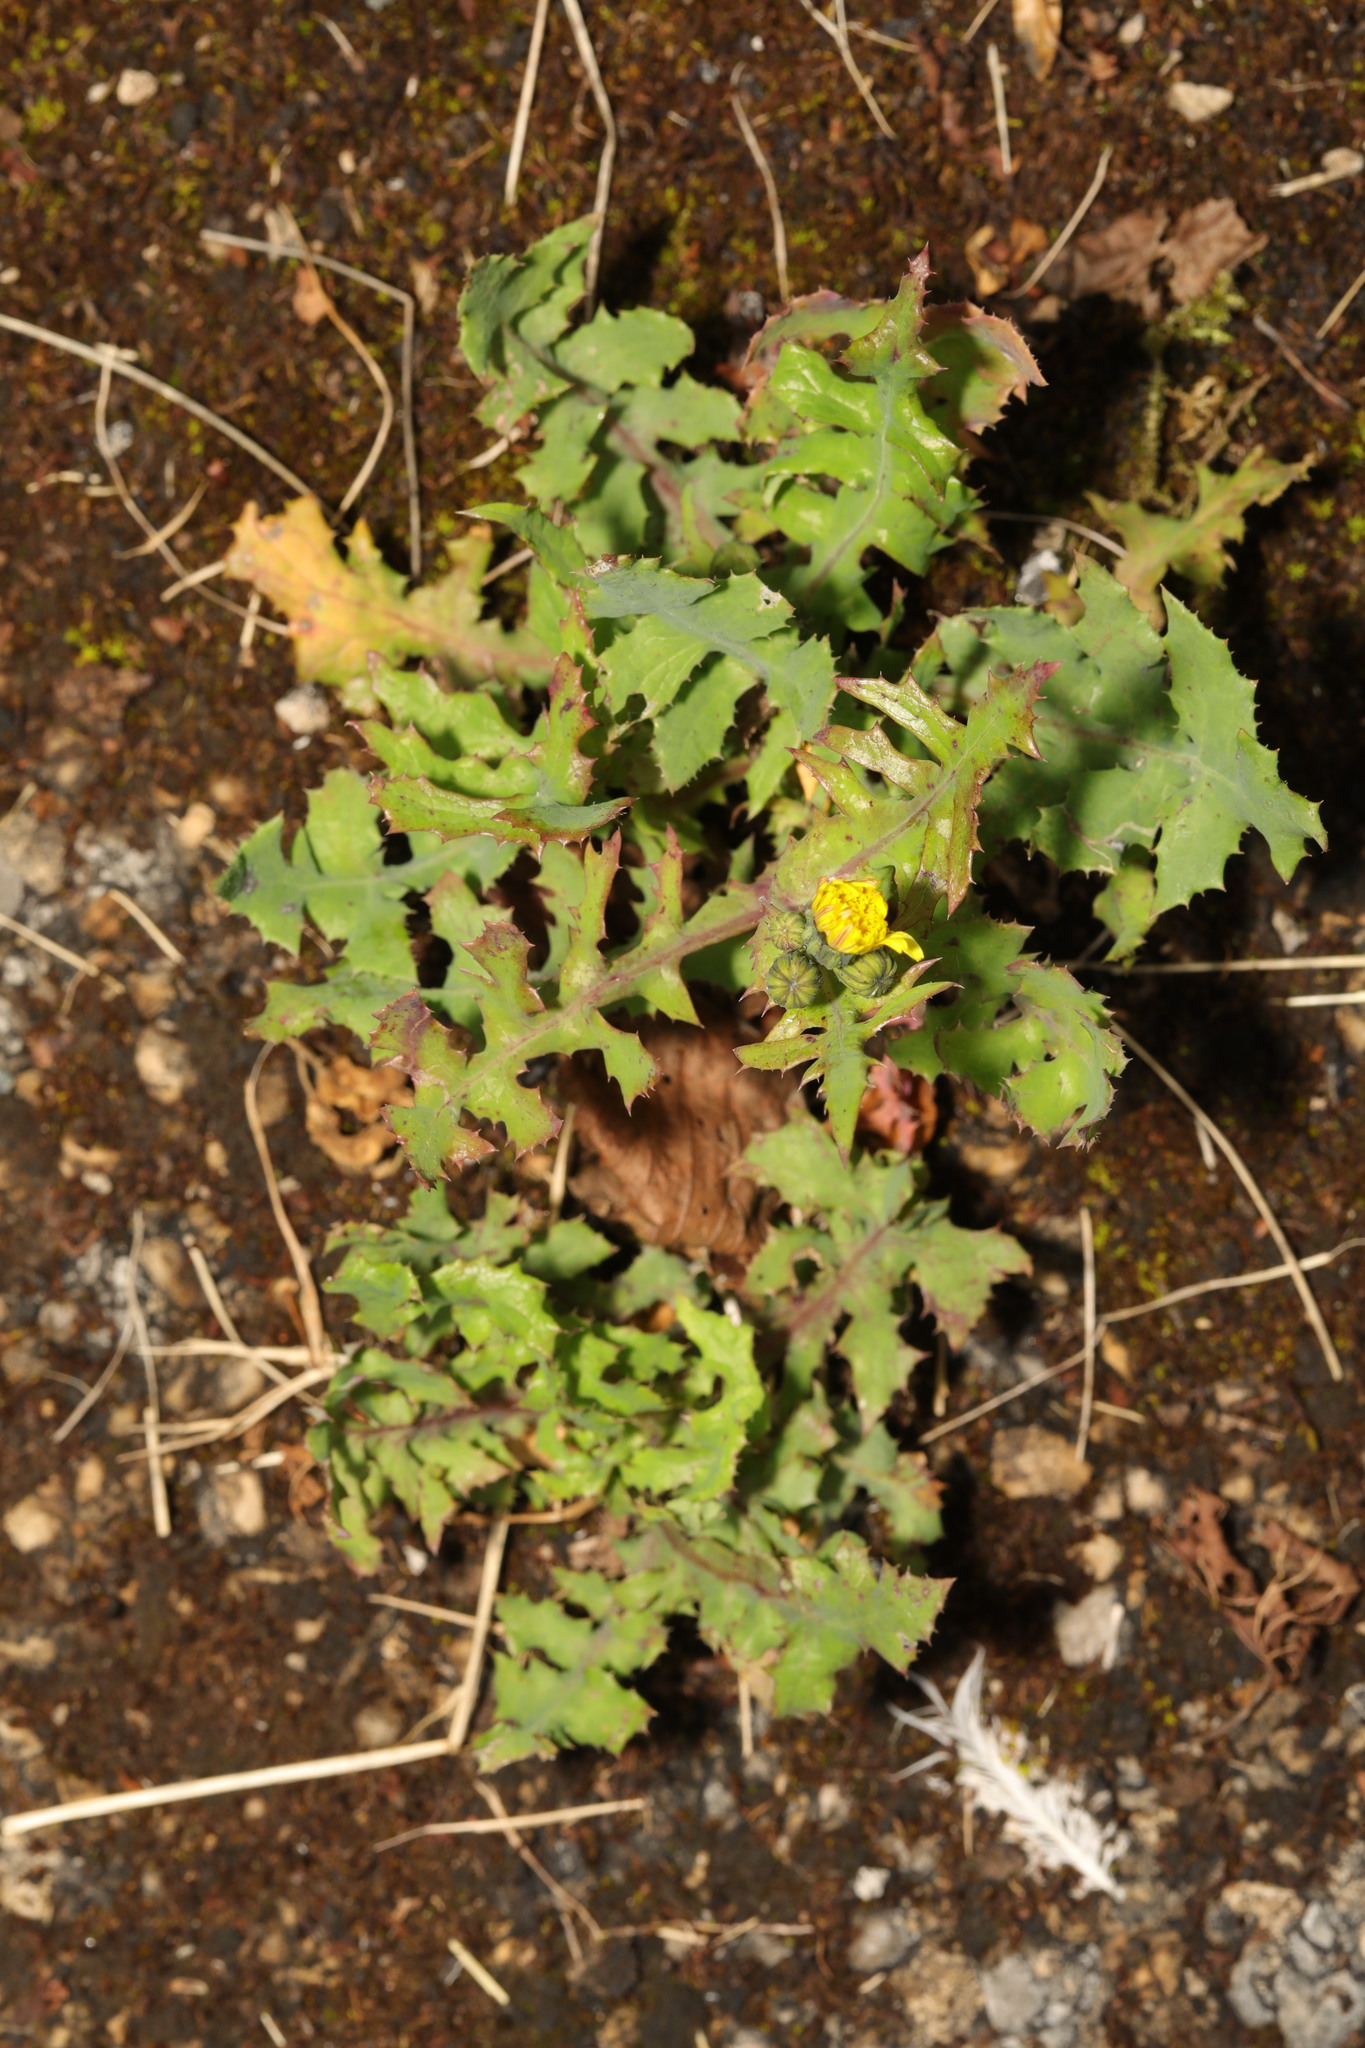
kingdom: Plantae
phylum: Tracheophyta
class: Magnoliopsida
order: Asterales
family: Asteraceae
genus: Sonchus
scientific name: Sonchus oleraceus
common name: Common sowthistle
